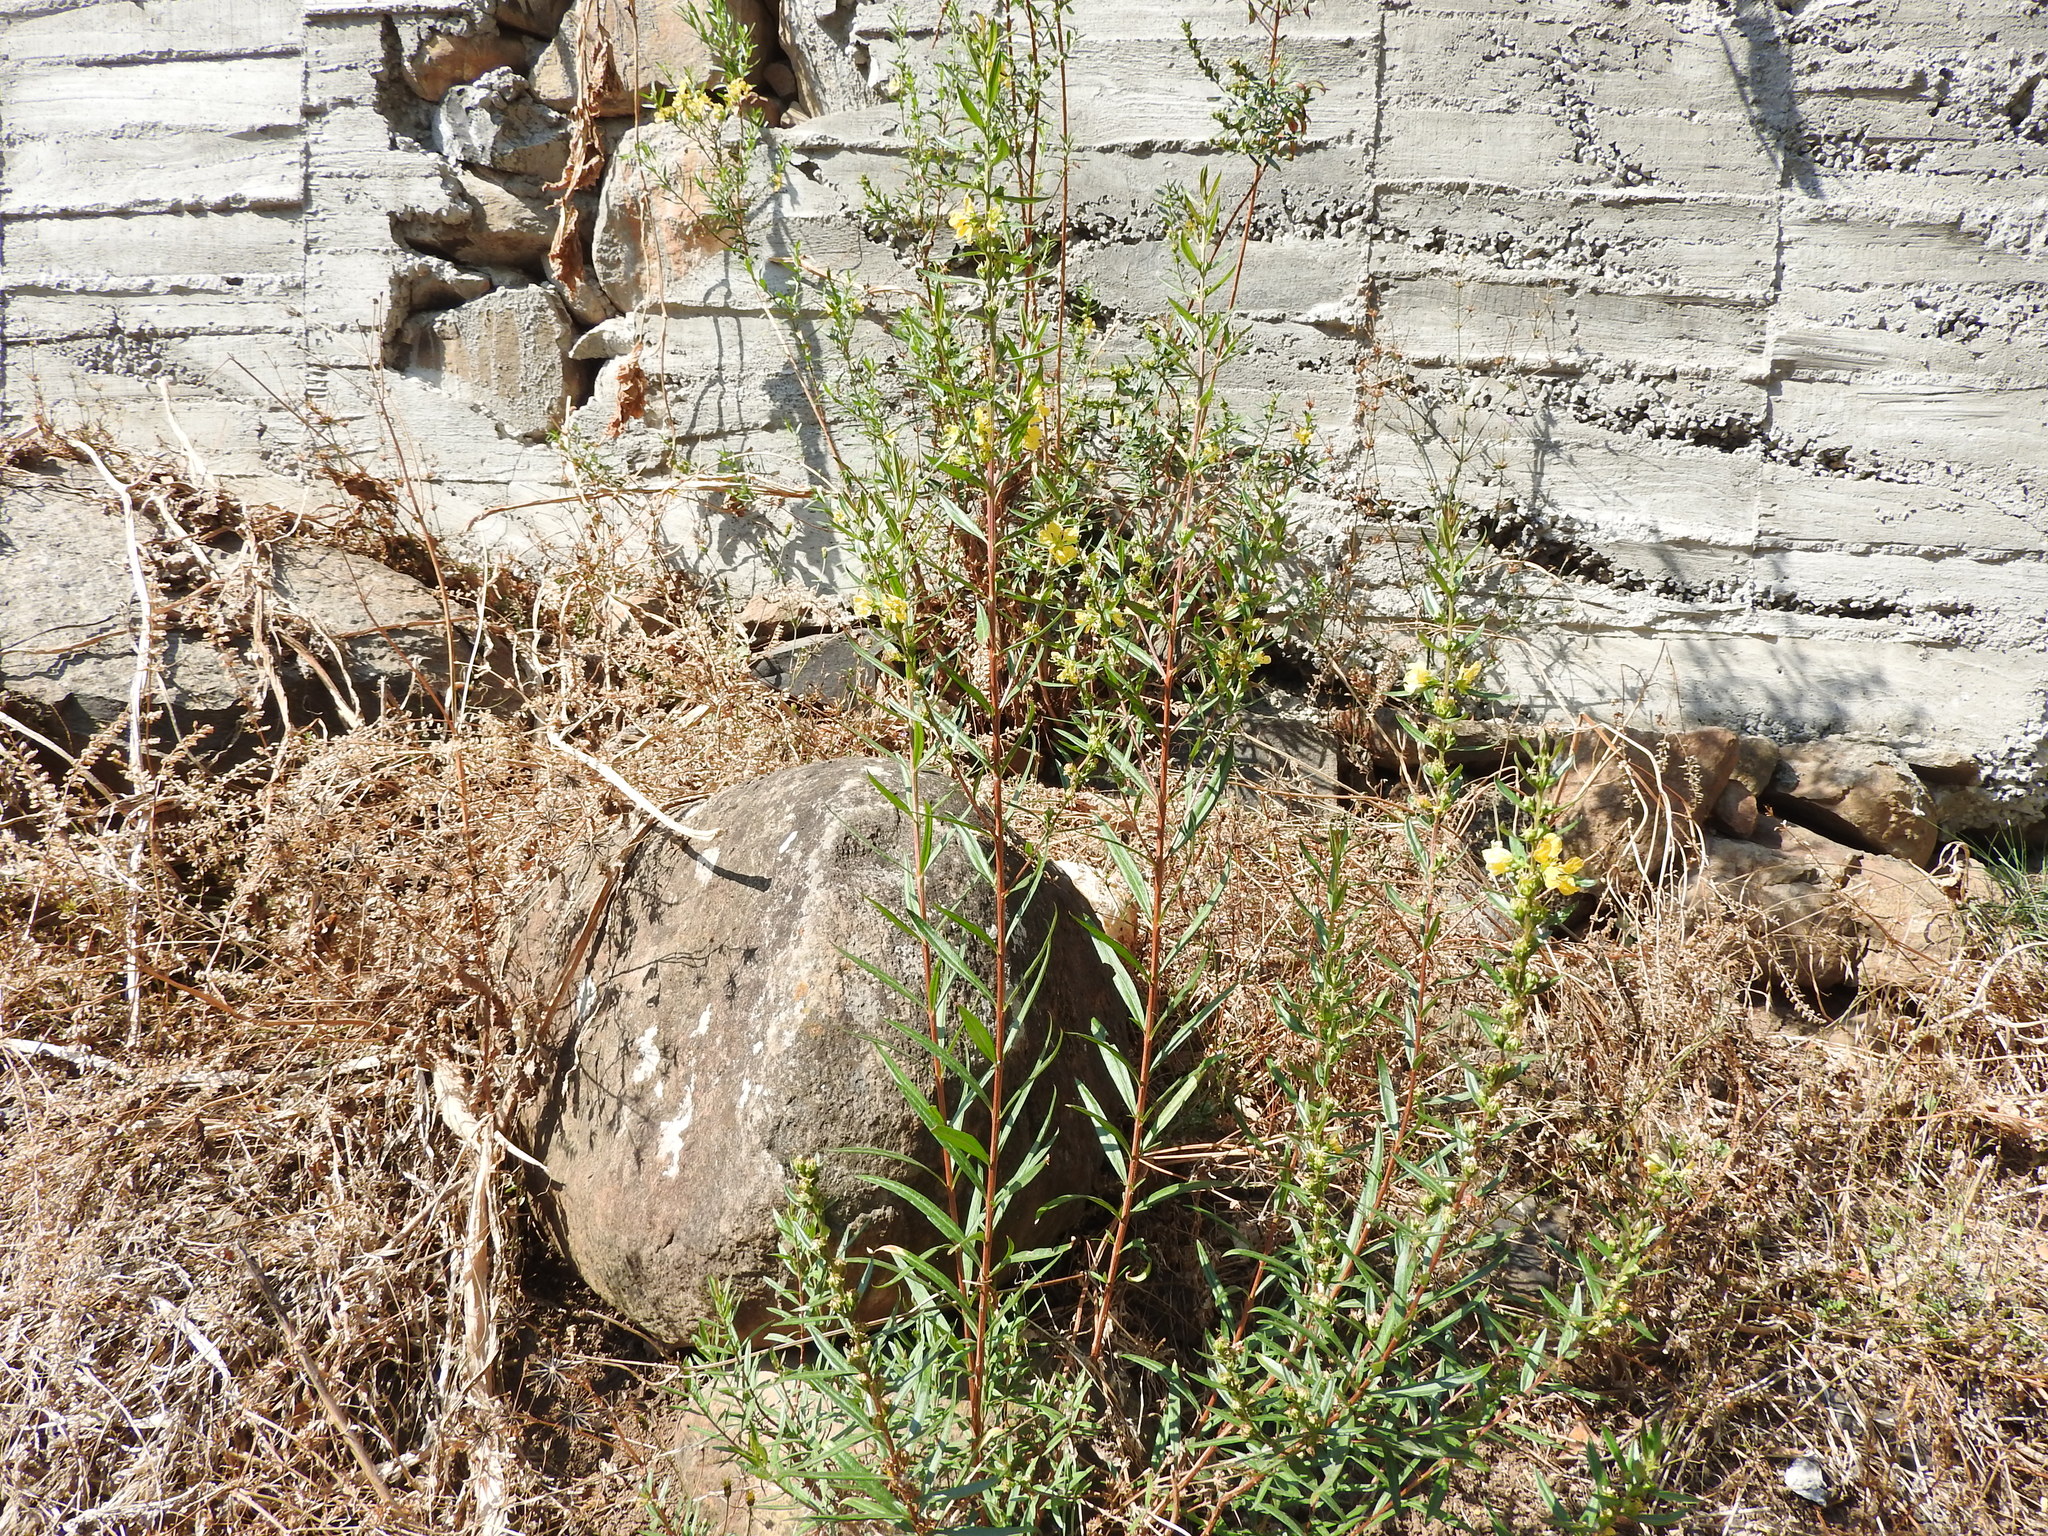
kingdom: Plantae
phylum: Tracheophyta
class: Magnoliopsida
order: Myrtales
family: Lythraceae
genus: Heimia
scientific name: Heimia salicifolia
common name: Willow-leaf heimia
